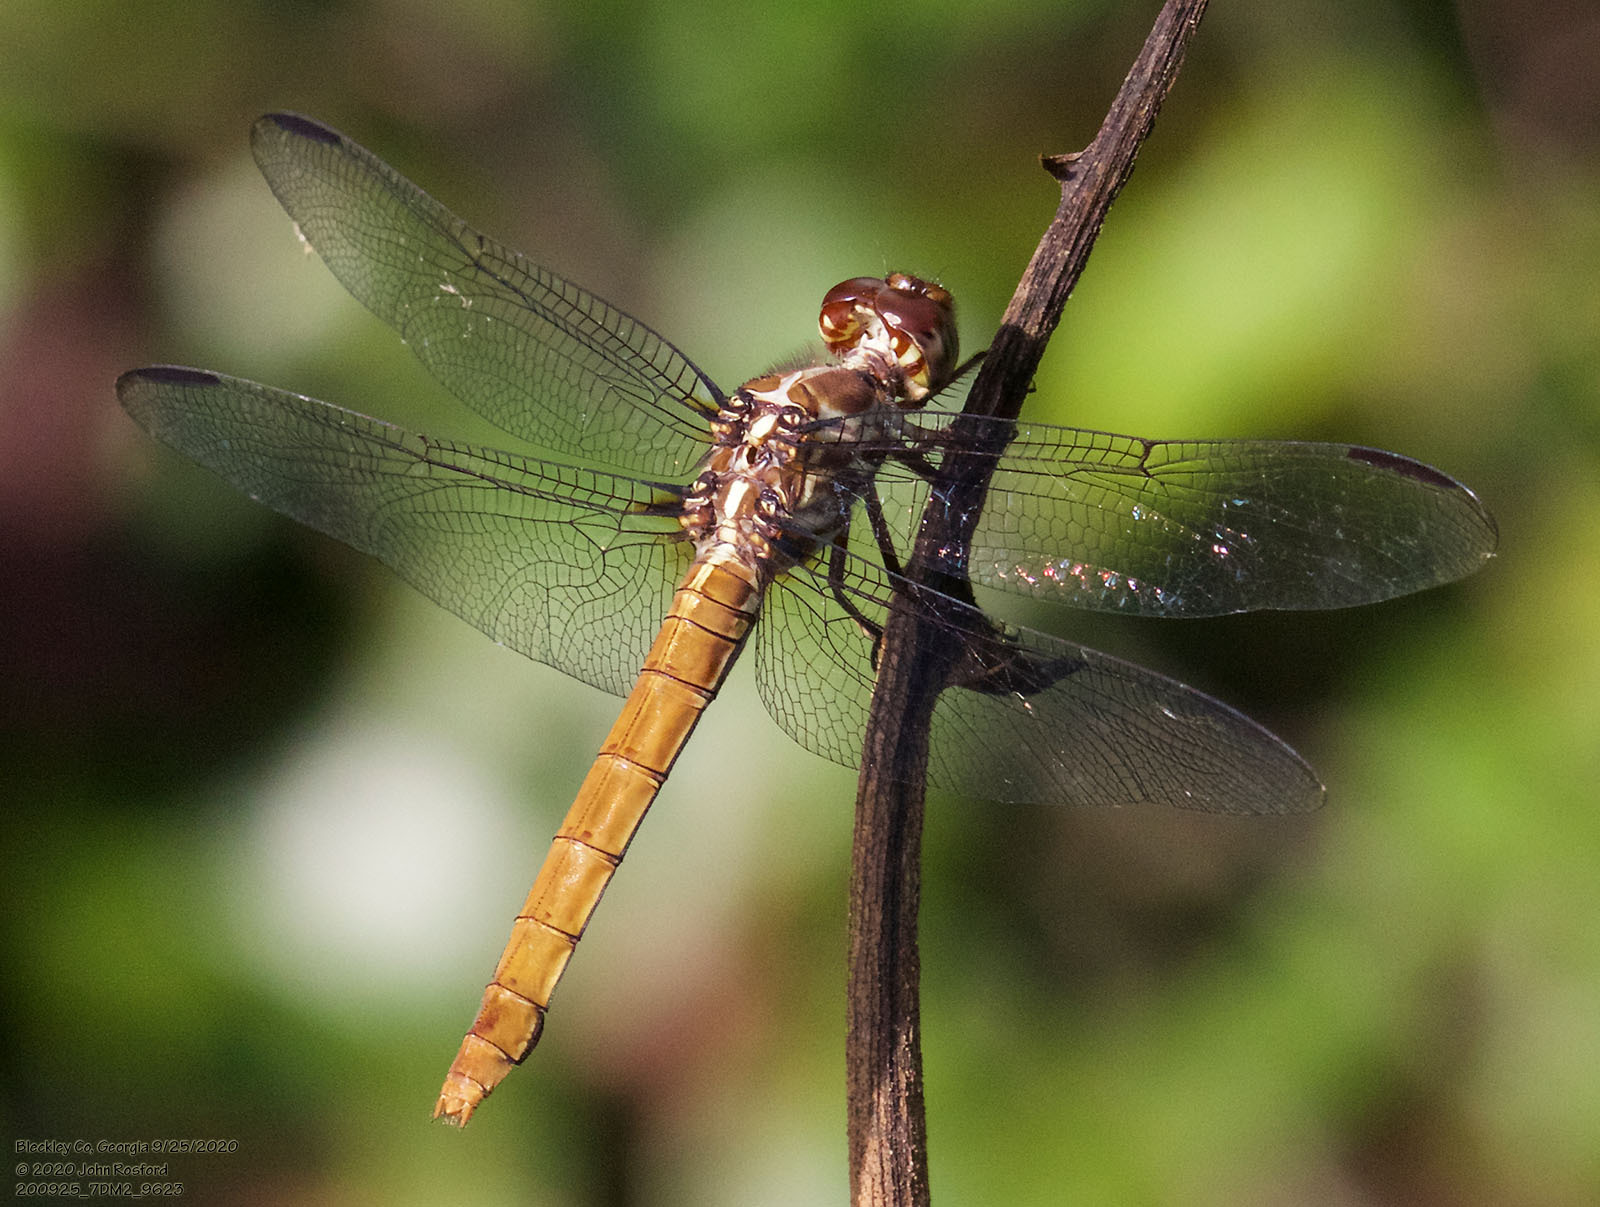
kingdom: Animalia
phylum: Arthropoda
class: Insecta
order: Odonata
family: Libellulidae
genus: Orthemis
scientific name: Orthemis ferruginea
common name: Roseate skimmer
